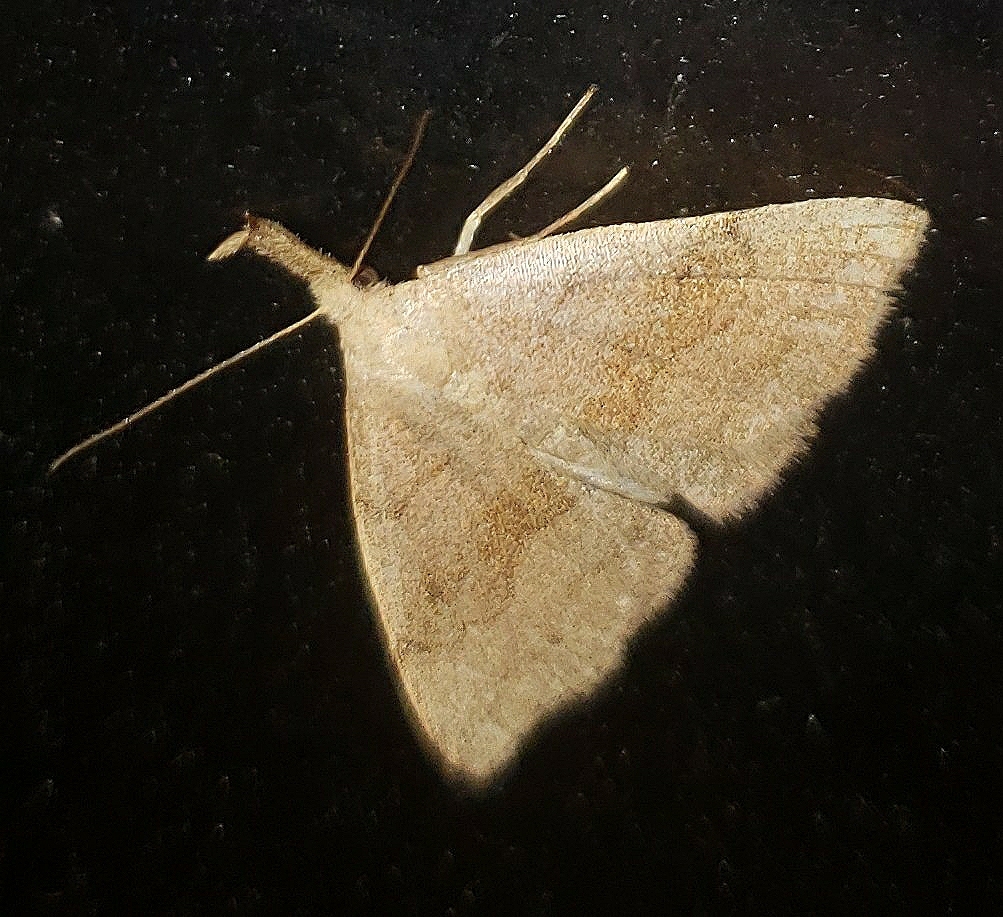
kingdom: Animalia
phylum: Arthropoda
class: Insecta
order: Lepidoptera
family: Erebidae
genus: Phalaenostola
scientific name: Phalaenostola metonalis
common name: Pale phalaenostola moth
